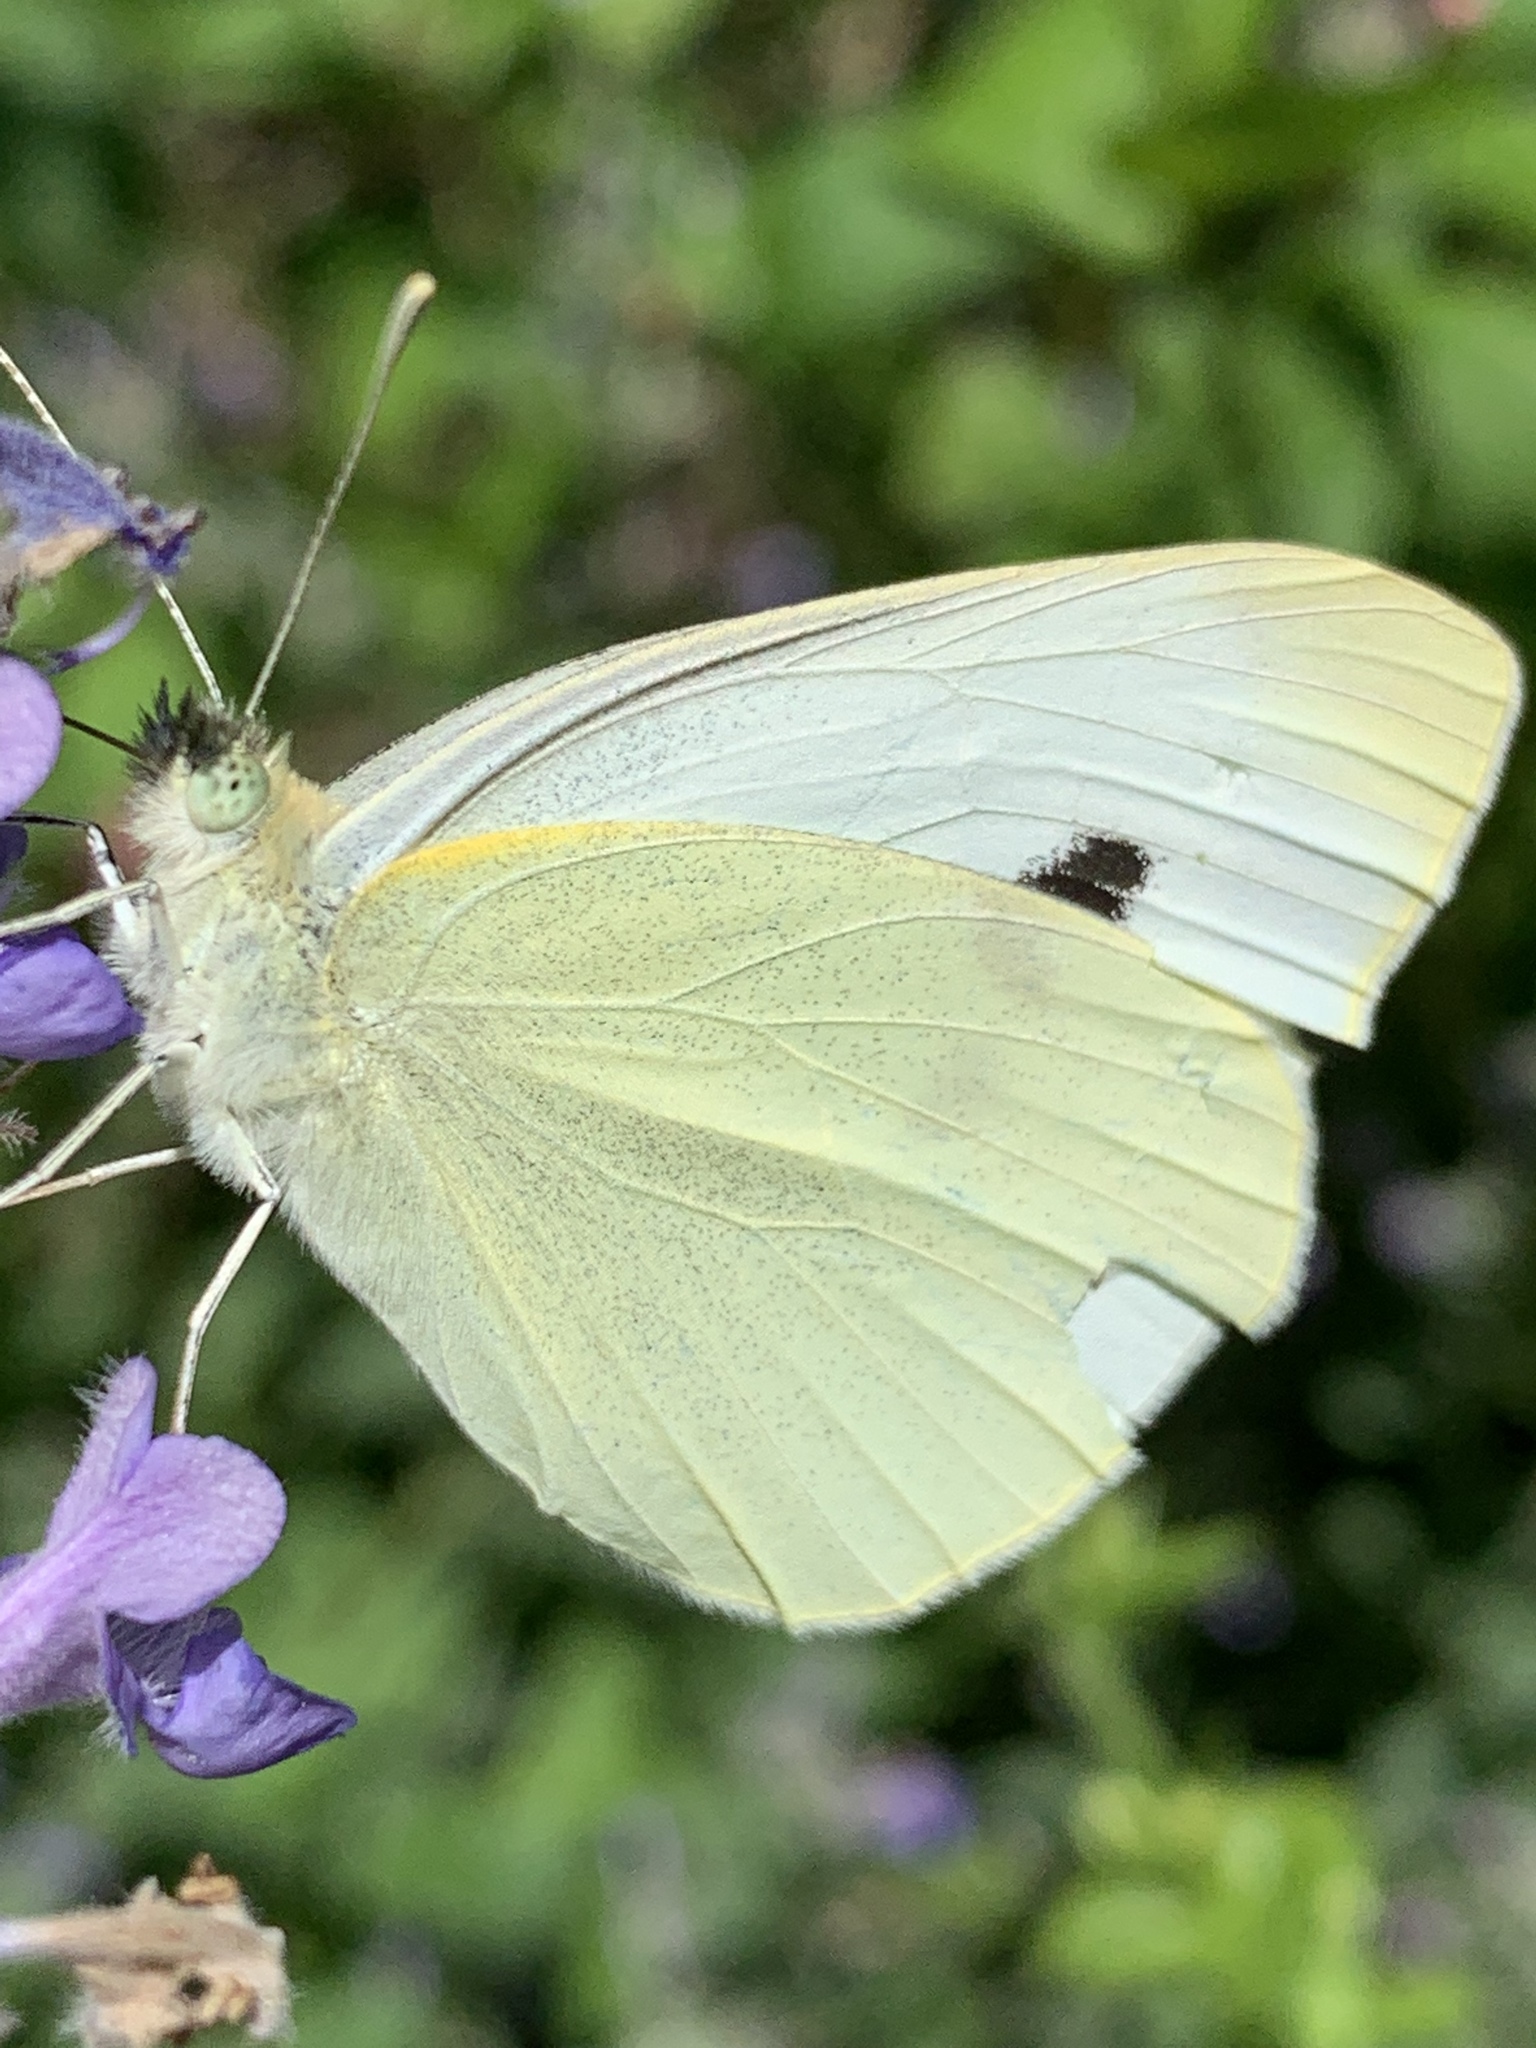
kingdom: Animalia
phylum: Arthropoda
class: Insecta
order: Lepidoptera
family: Pieridae
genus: Pieris
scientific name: Pieris rapae
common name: Small white
